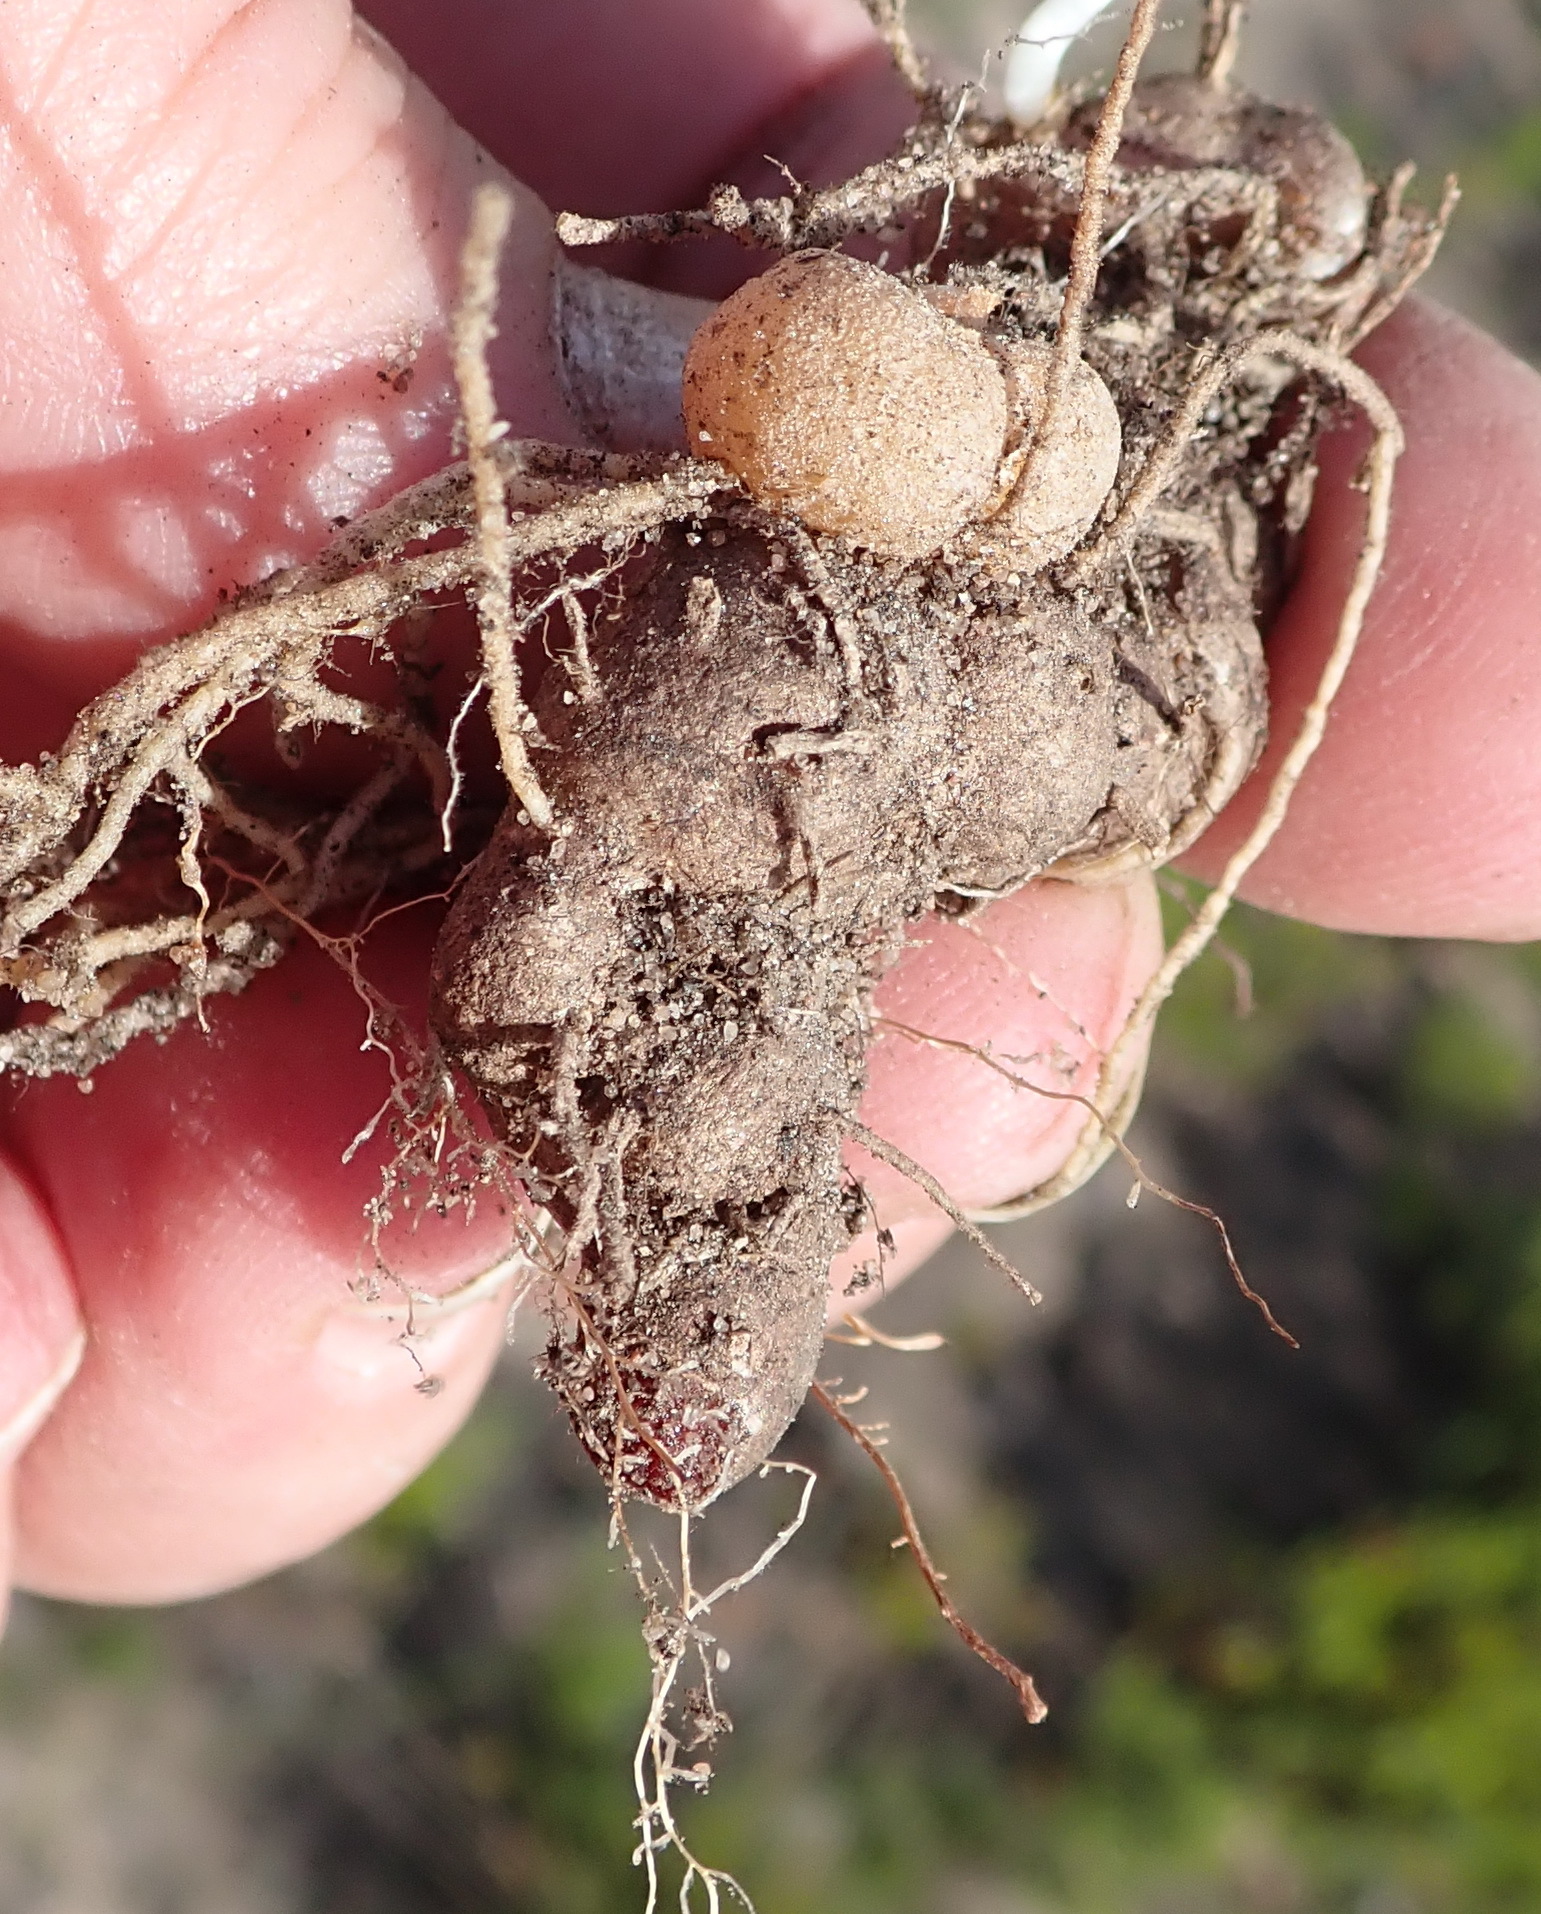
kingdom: Plantae
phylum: Tracheophyta
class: Liliopsida
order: Asparagales
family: Asparagaceae
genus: Eriospermum
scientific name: Eriospermum vermiforme
